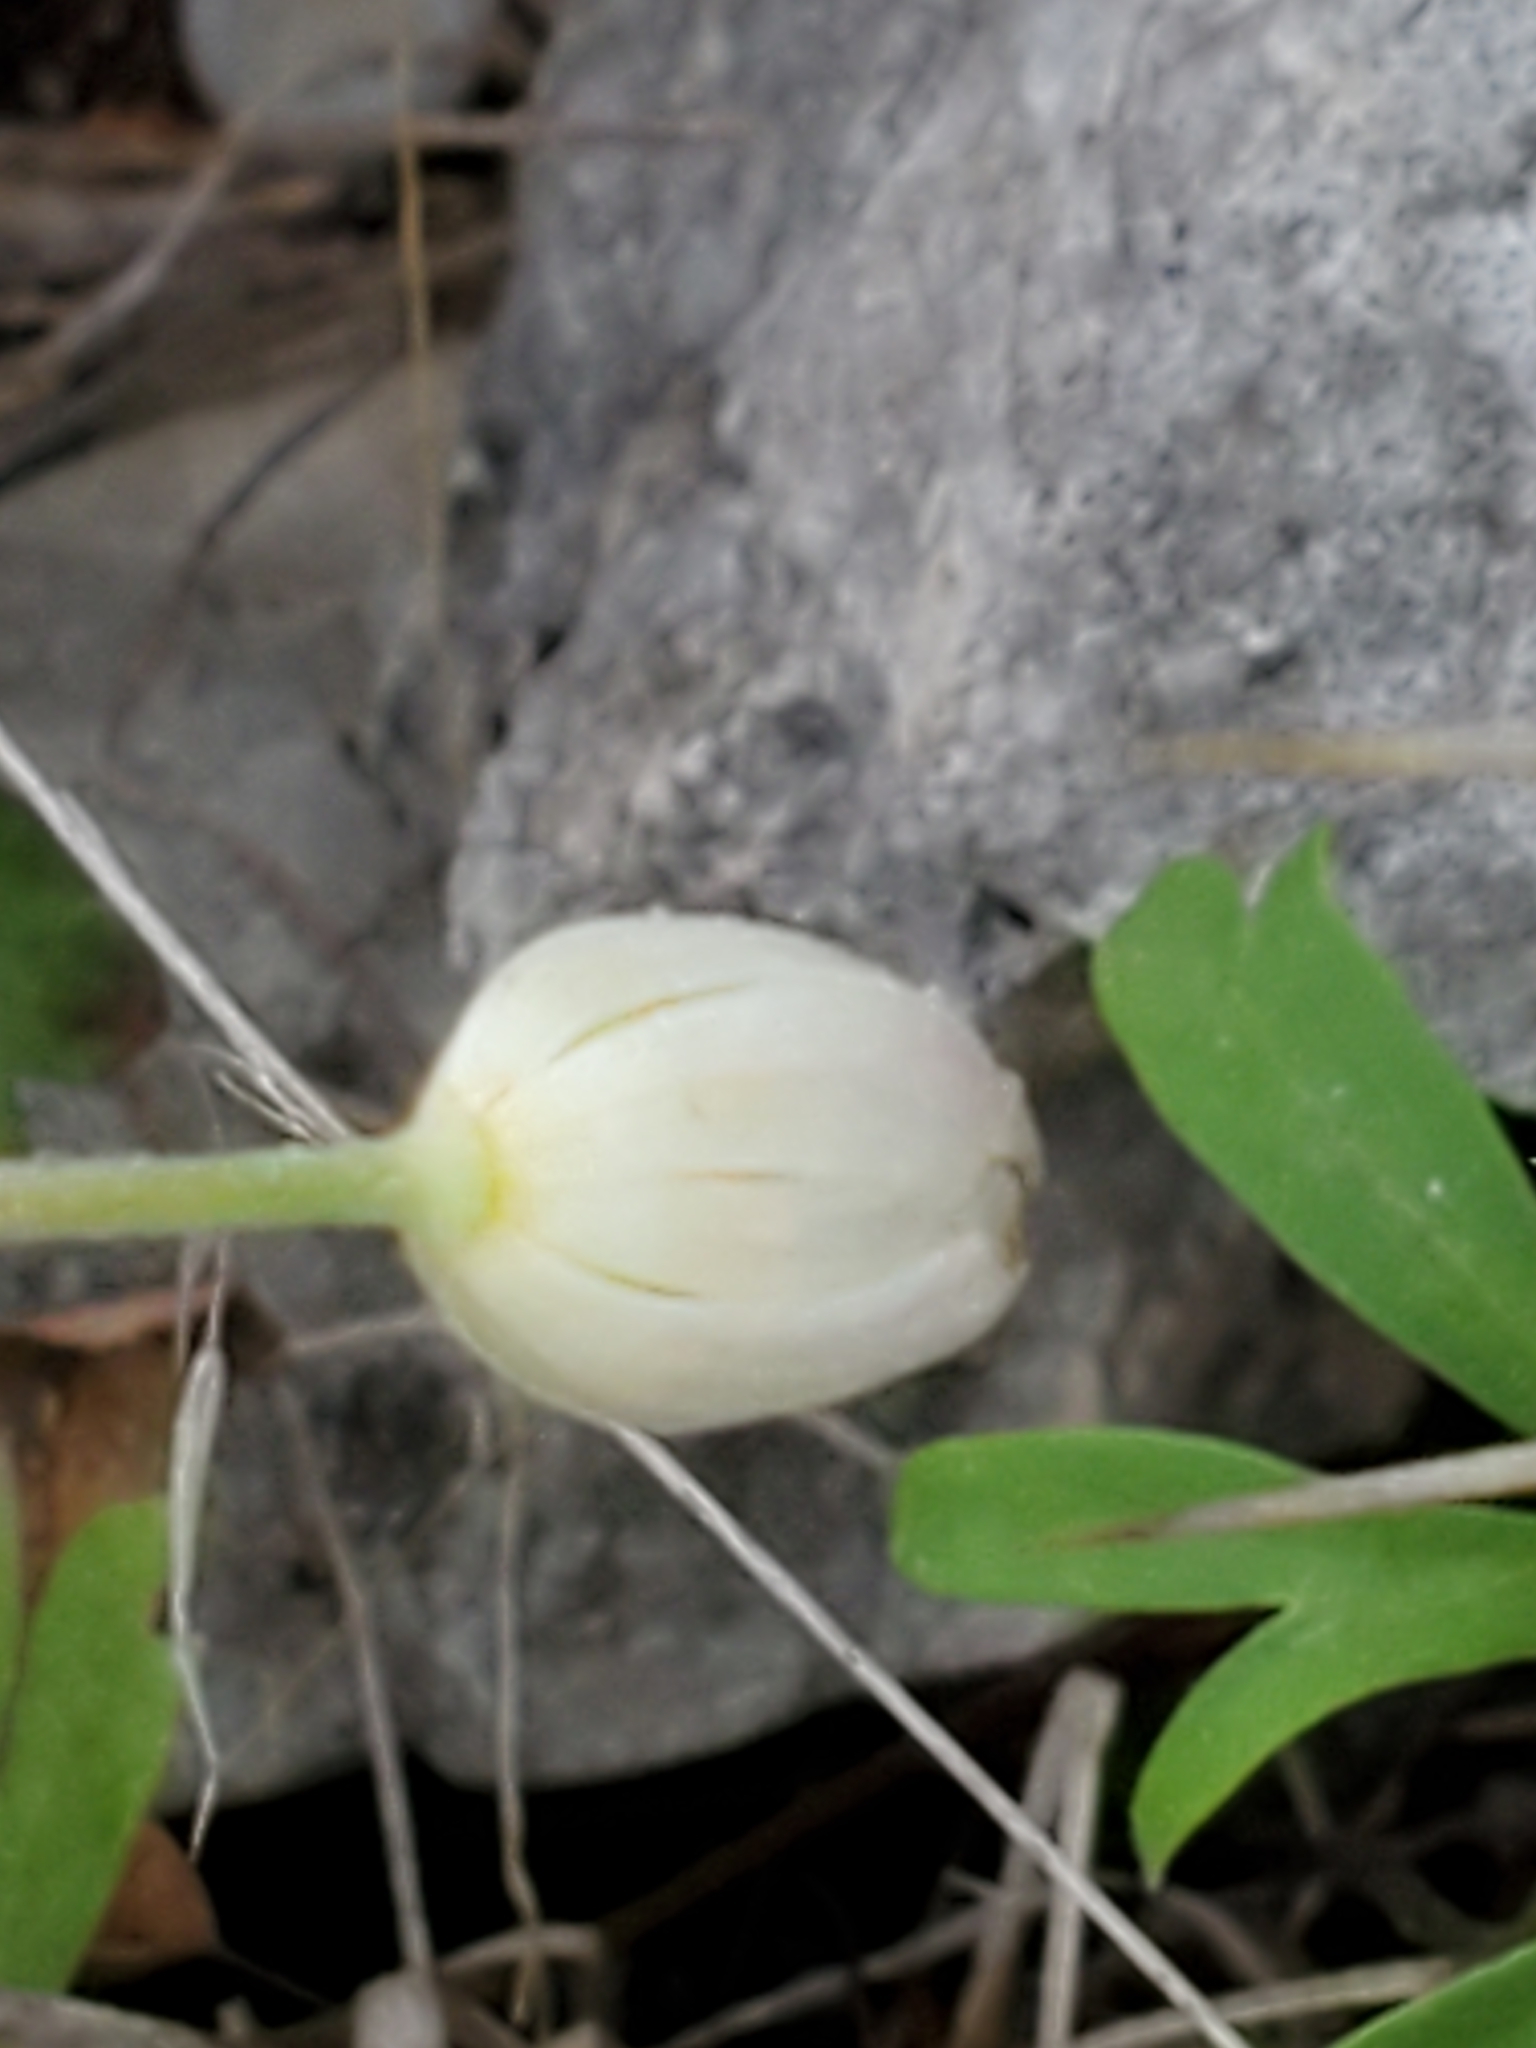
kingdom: Plantae
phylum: Tracheophyta
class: Magnoliopsida
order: Ranunculales
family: Ranunculaceae
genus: Anemone
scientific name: Anemone edwardsiana
